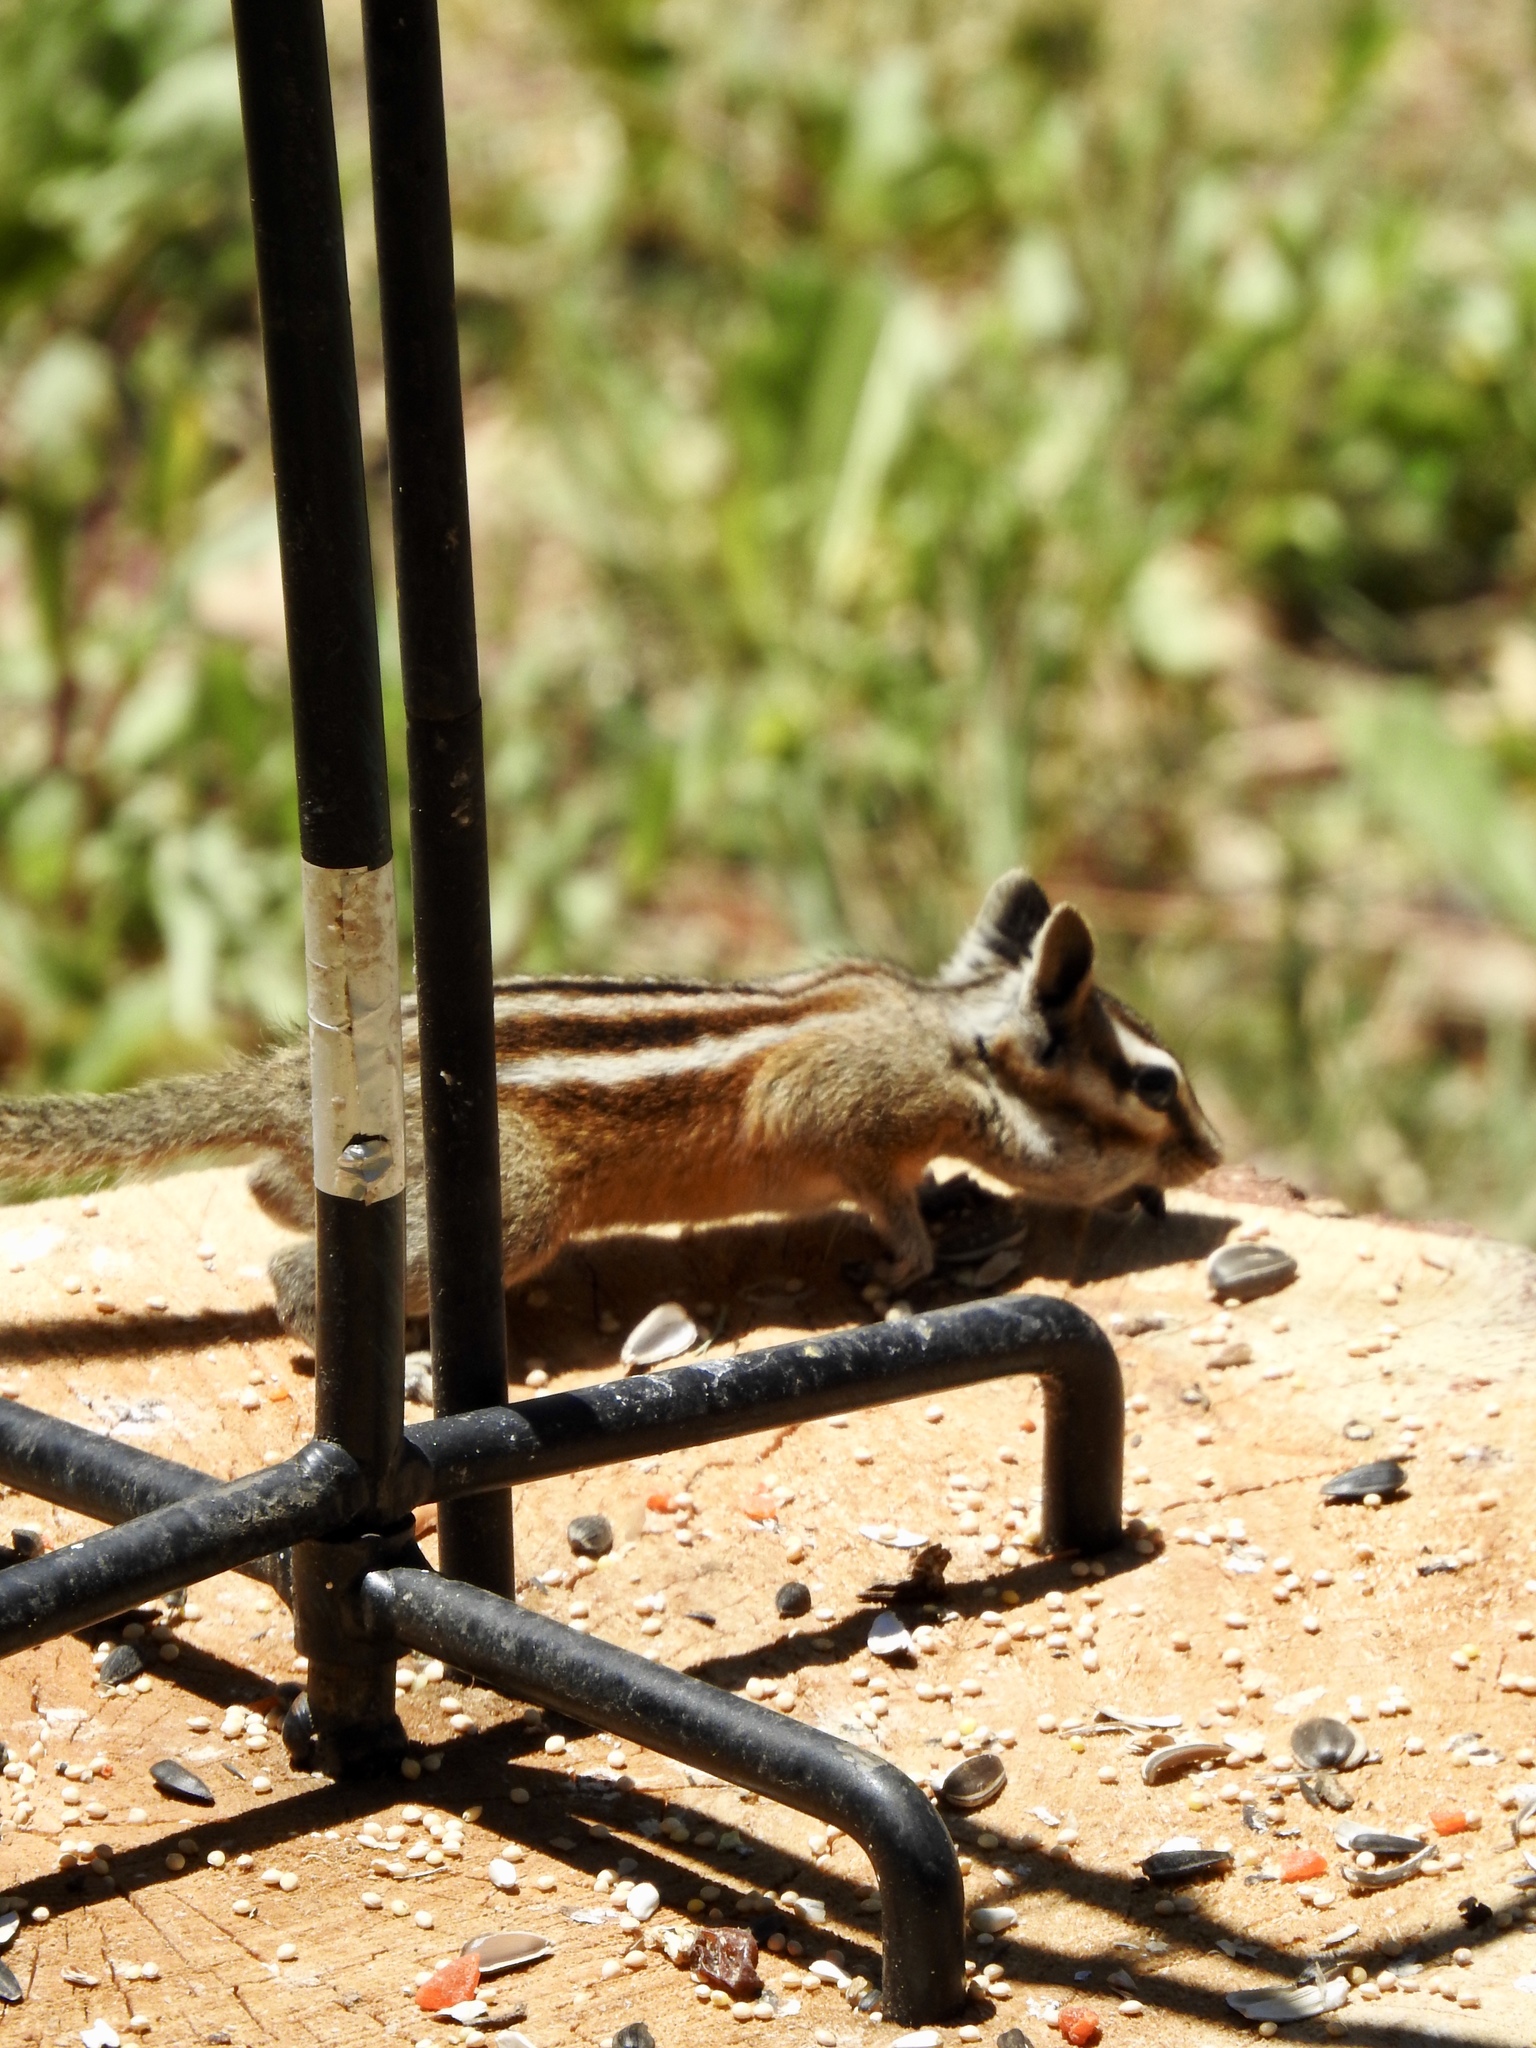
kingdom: Animalia
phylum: Chordata
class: Mammalia
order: Rodentia
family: Sciuridae
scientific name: Sciuridae
